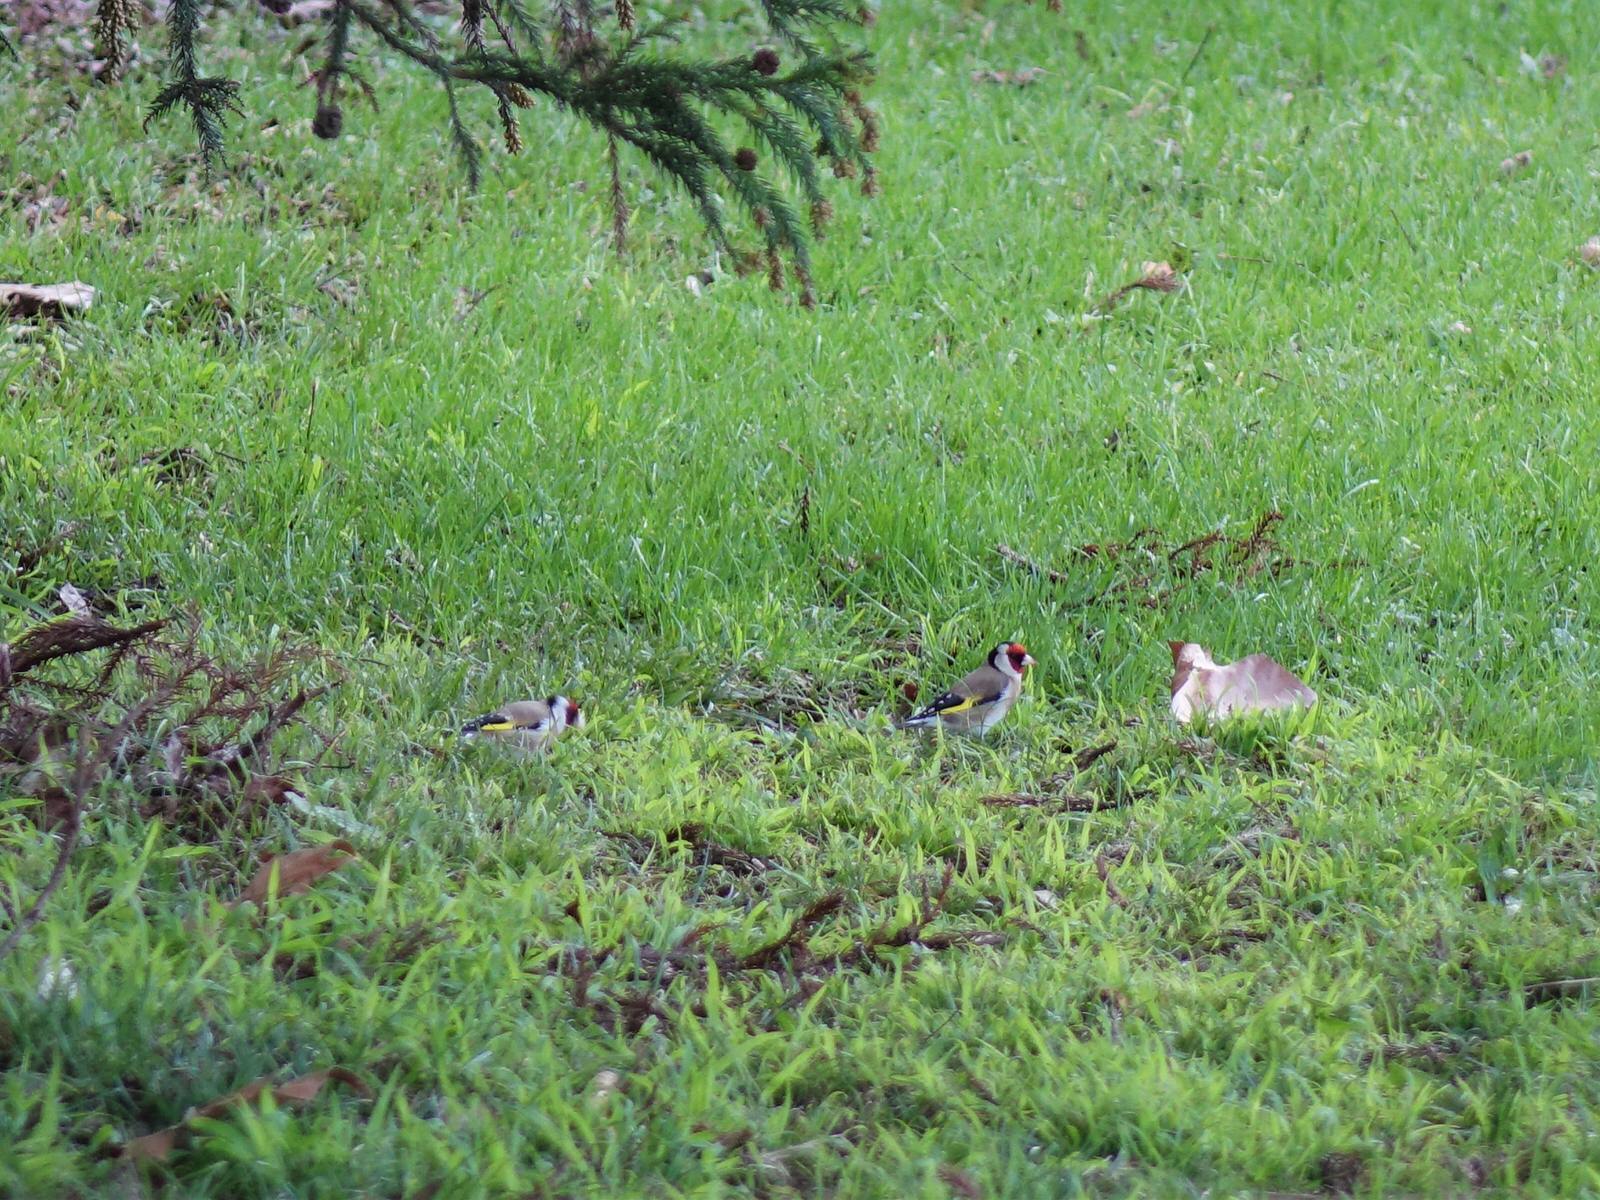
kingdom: Animalia
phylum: Chordata
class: Aves
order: Passeriformes
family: Fringillidae
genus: Carduelis
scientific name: Carduelis carduelis
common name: European goldfinch
